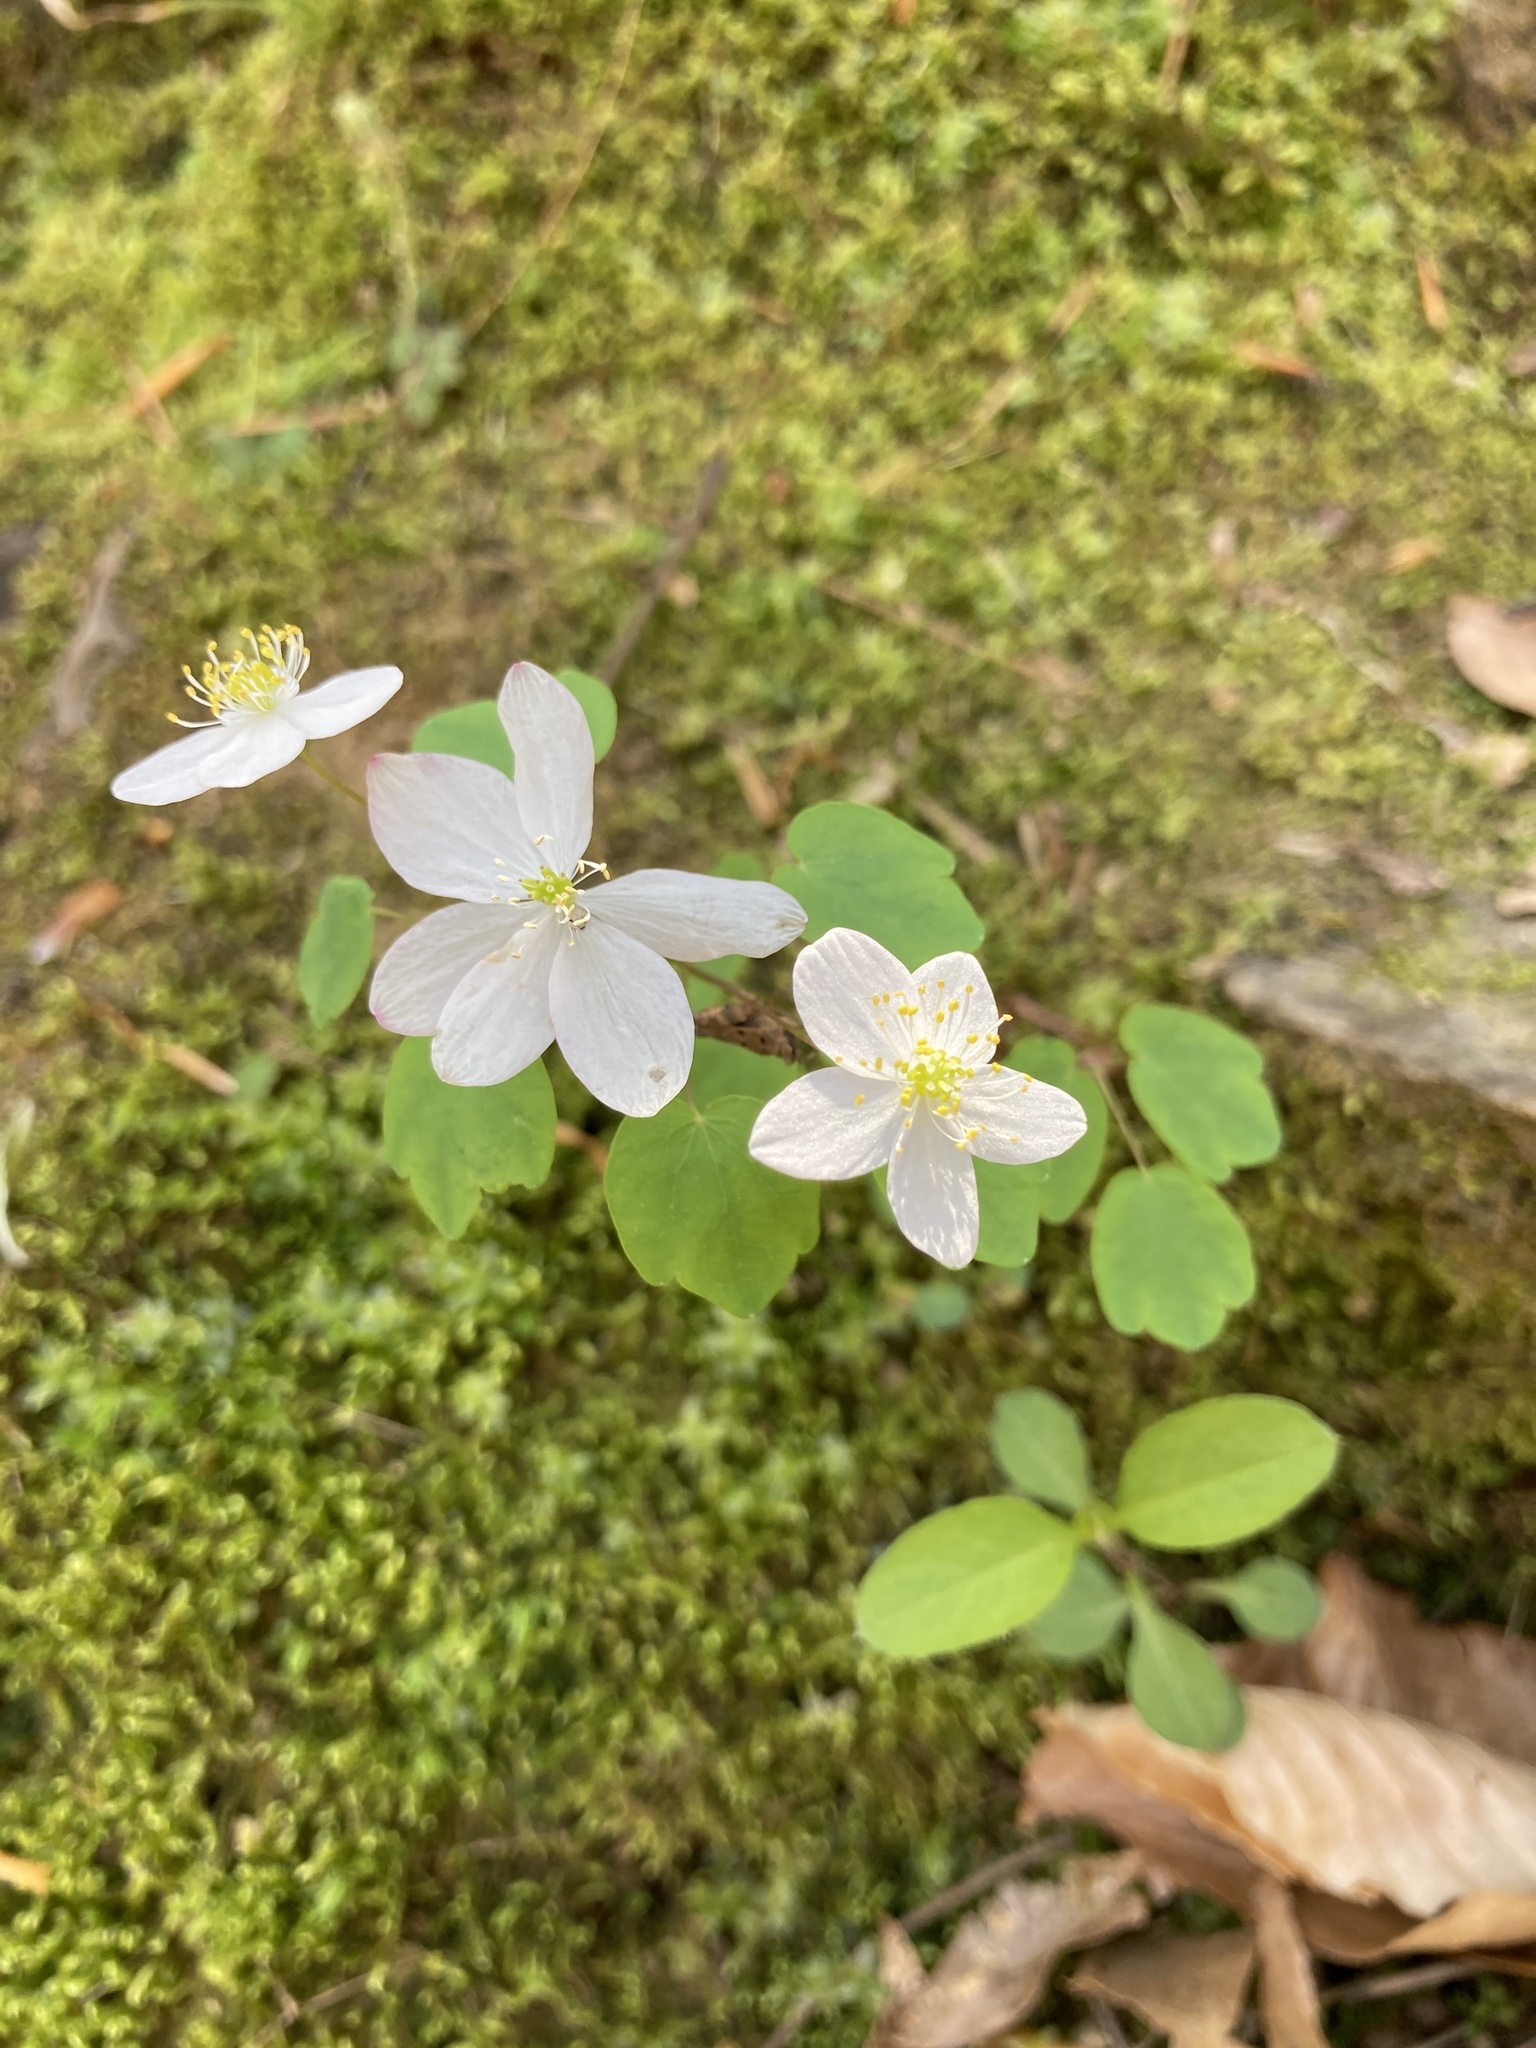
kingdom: Plantae
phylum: Tracheophyta
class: Magnoliopsida
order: Ranunculales
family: Ranunculaceae
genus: Thalictrum
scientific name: Thalictrum thalictroides
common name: Rue-anemone
